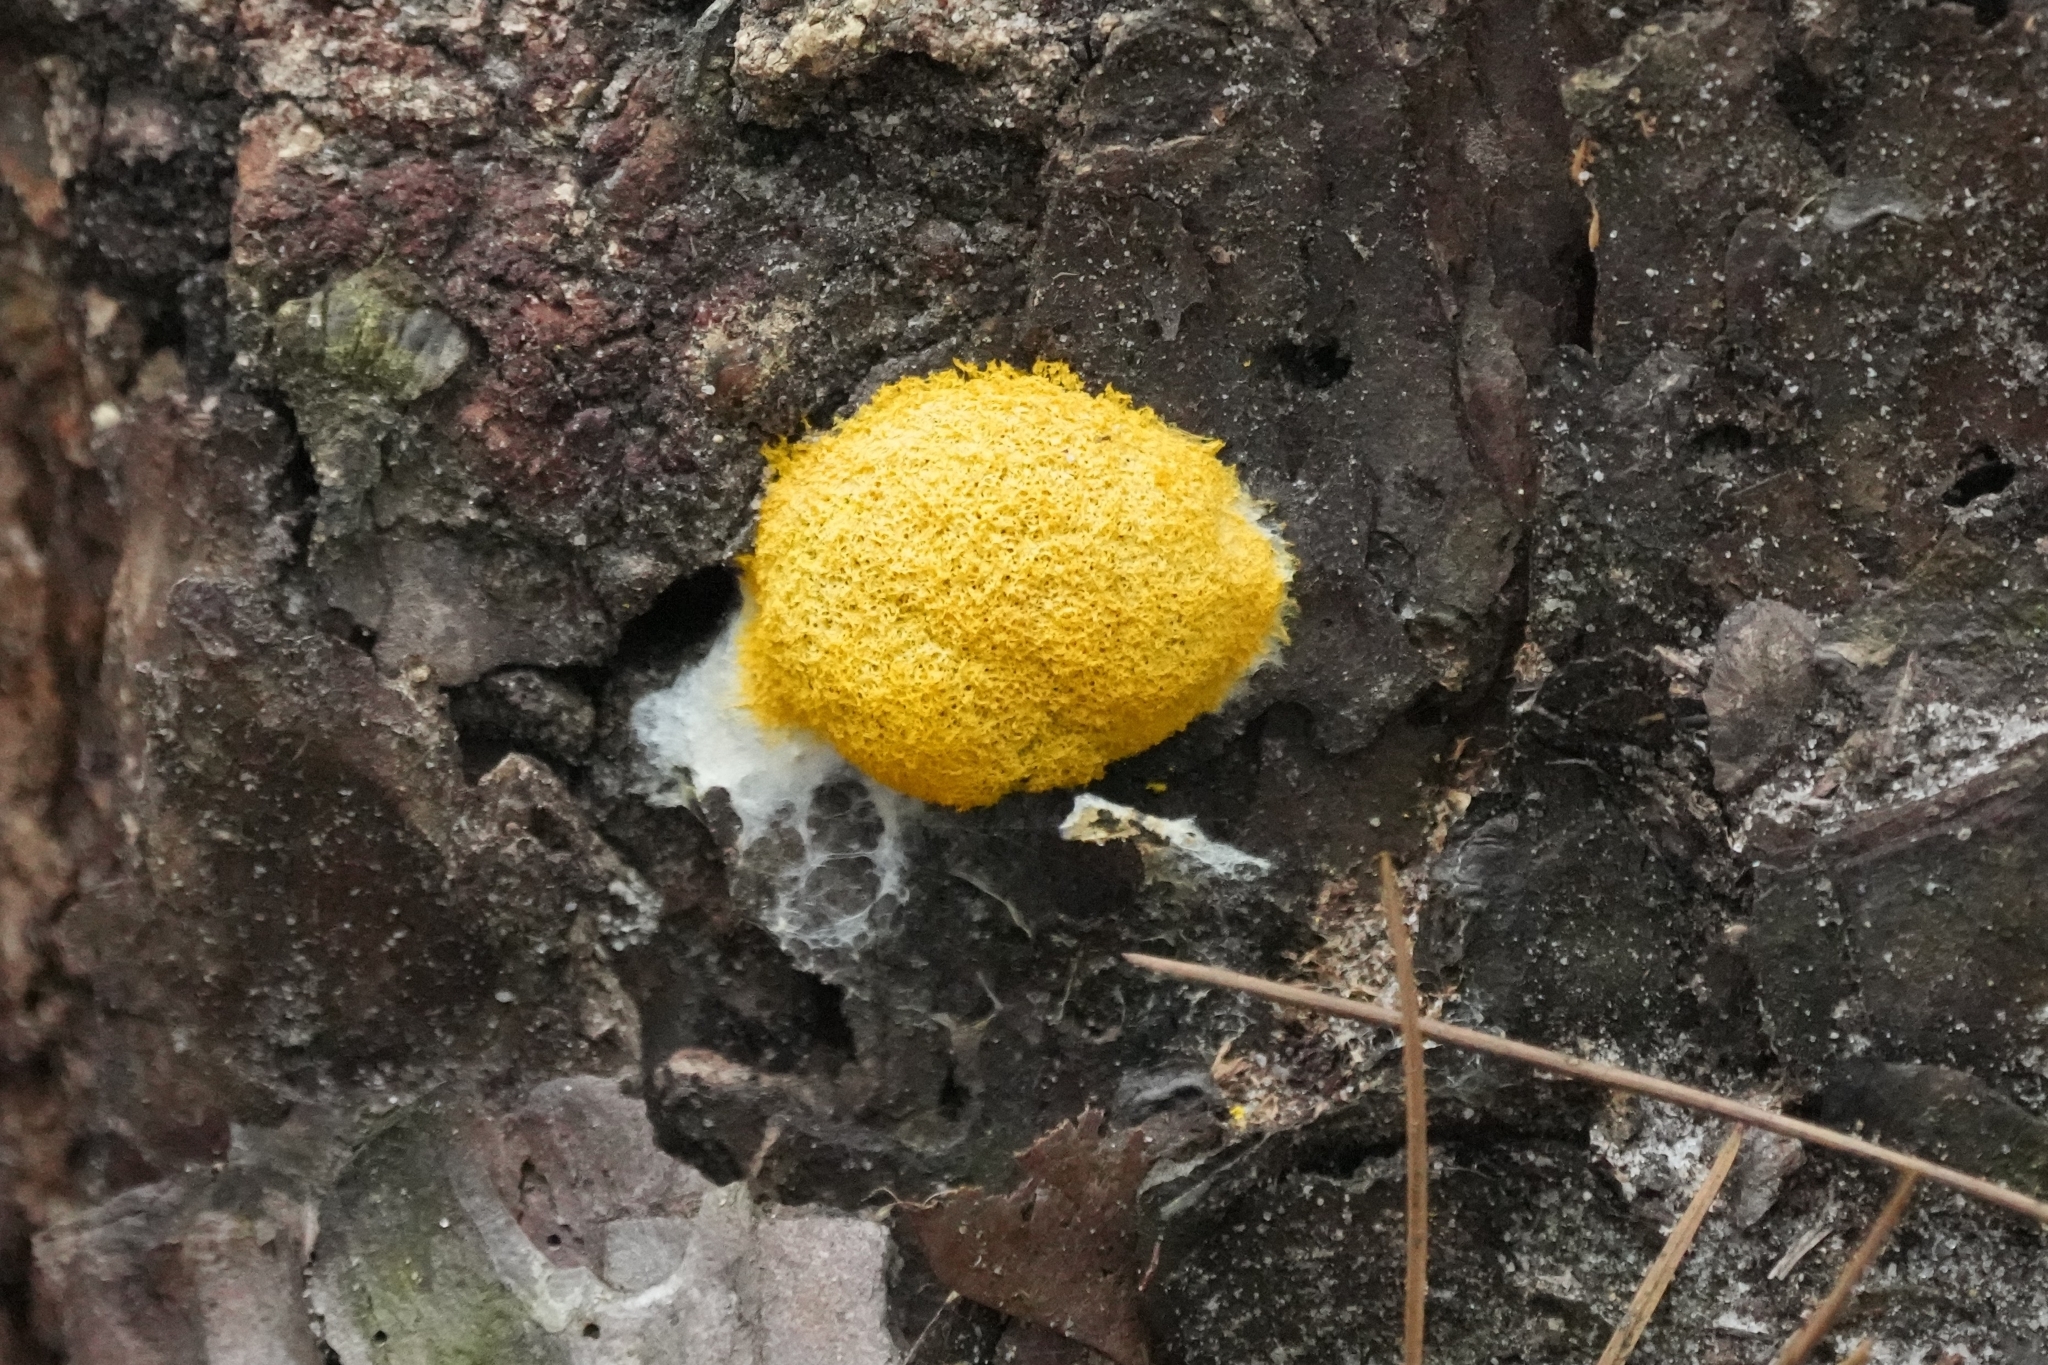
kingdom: Protozoa
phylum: Mycetozoa
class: Myxomycetes
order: Physarales
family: Physaraceae
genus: Fuligo
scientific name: Fuligo septica
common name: Dog vomit slime mold
